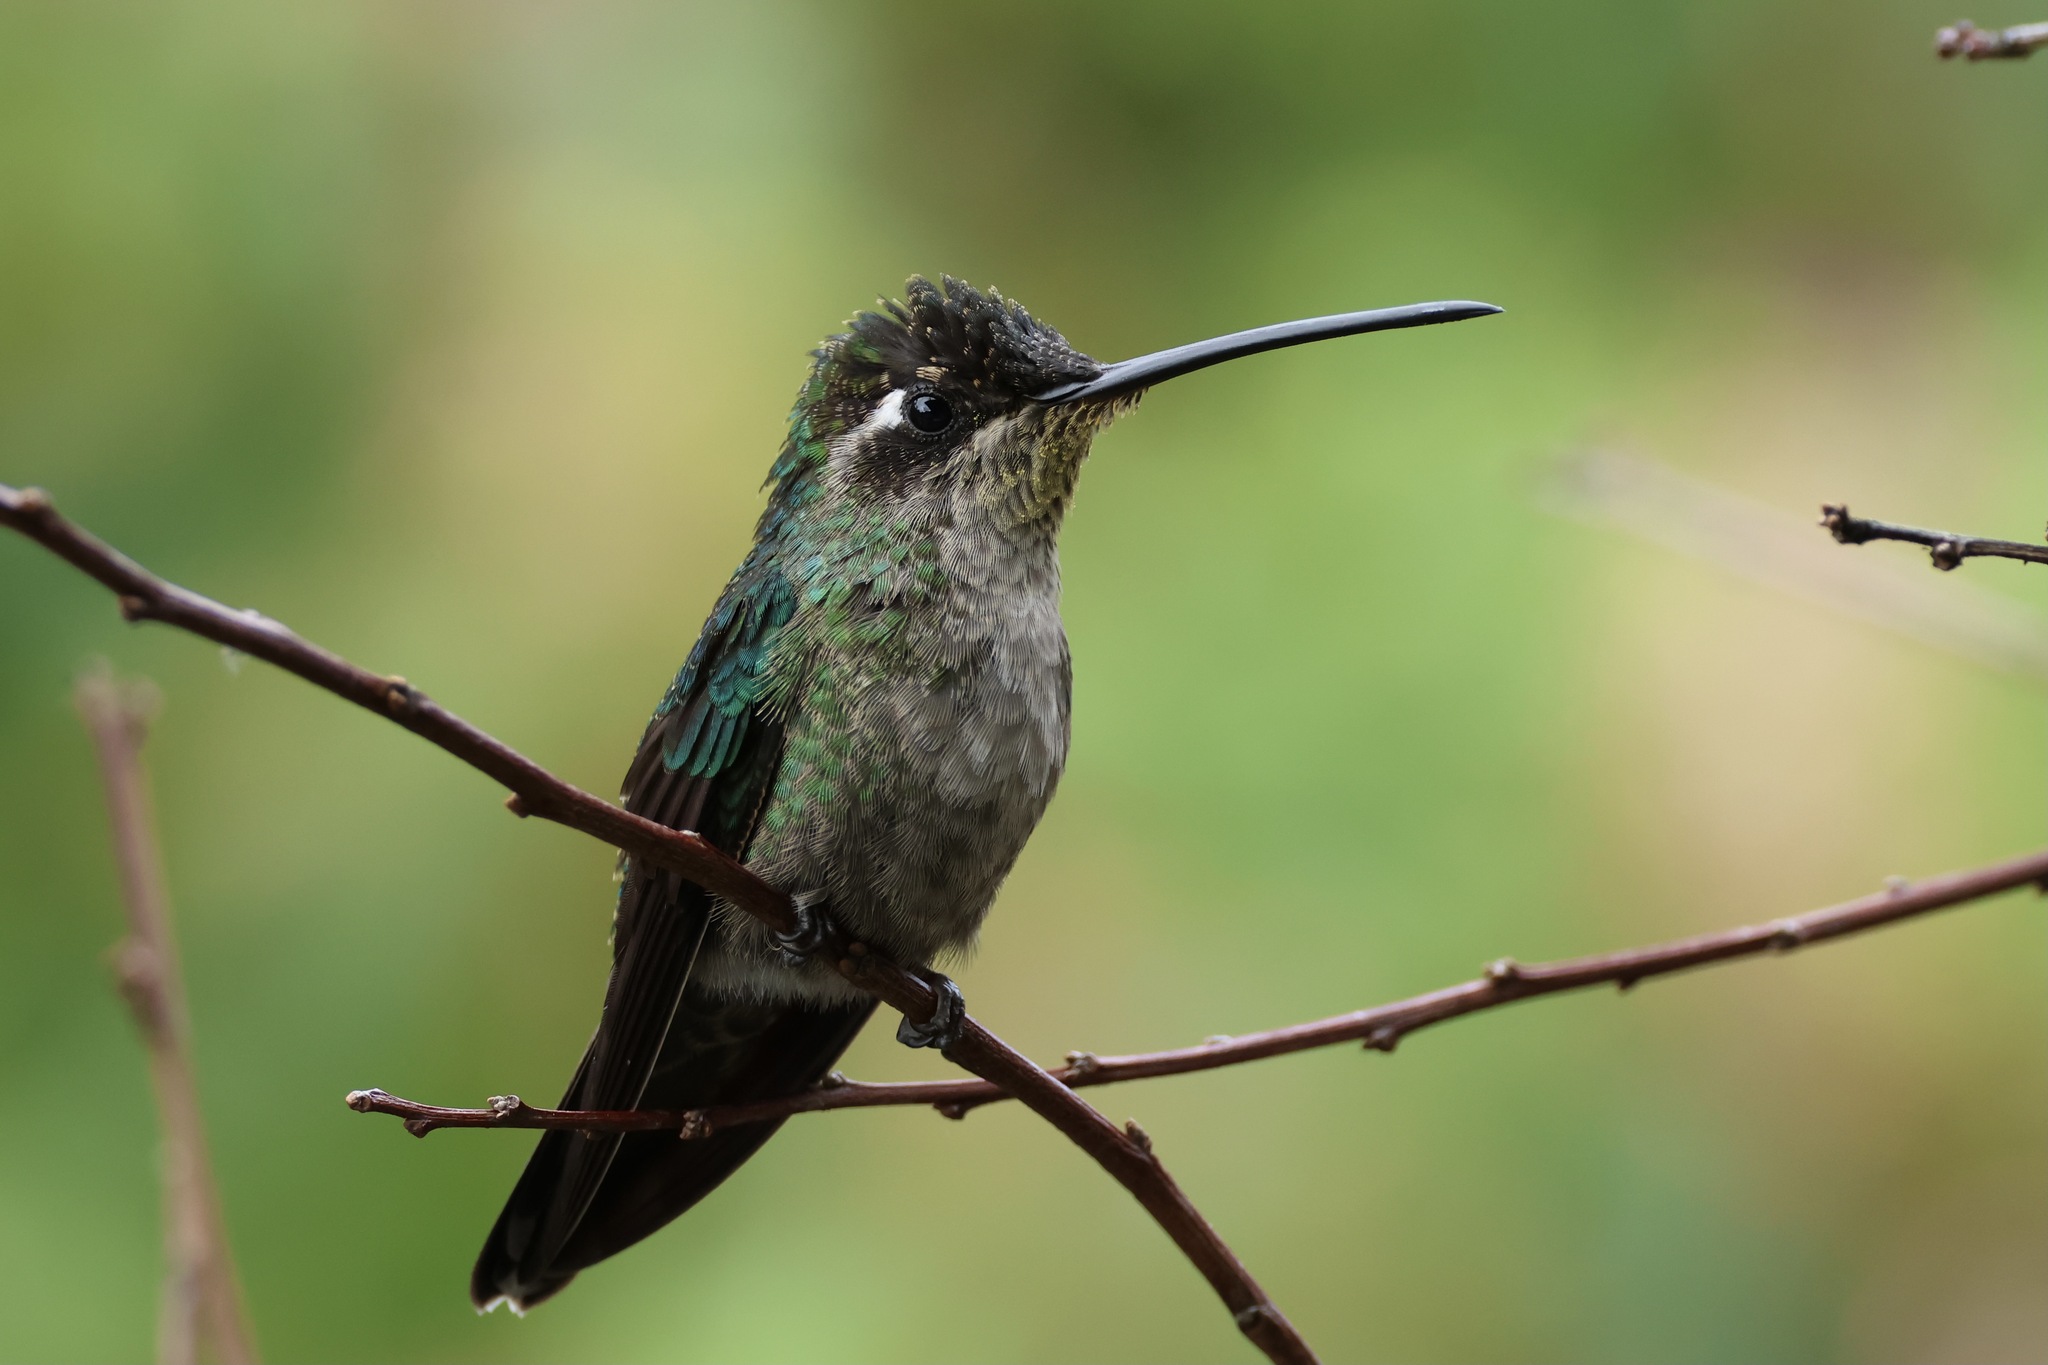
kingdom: Animalia
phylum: Chordata
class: Aves
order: Apodiformes
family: Trochilidae
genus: Eugenes
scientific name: Eugenes spectabilis
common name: Talamanca hummingbird
